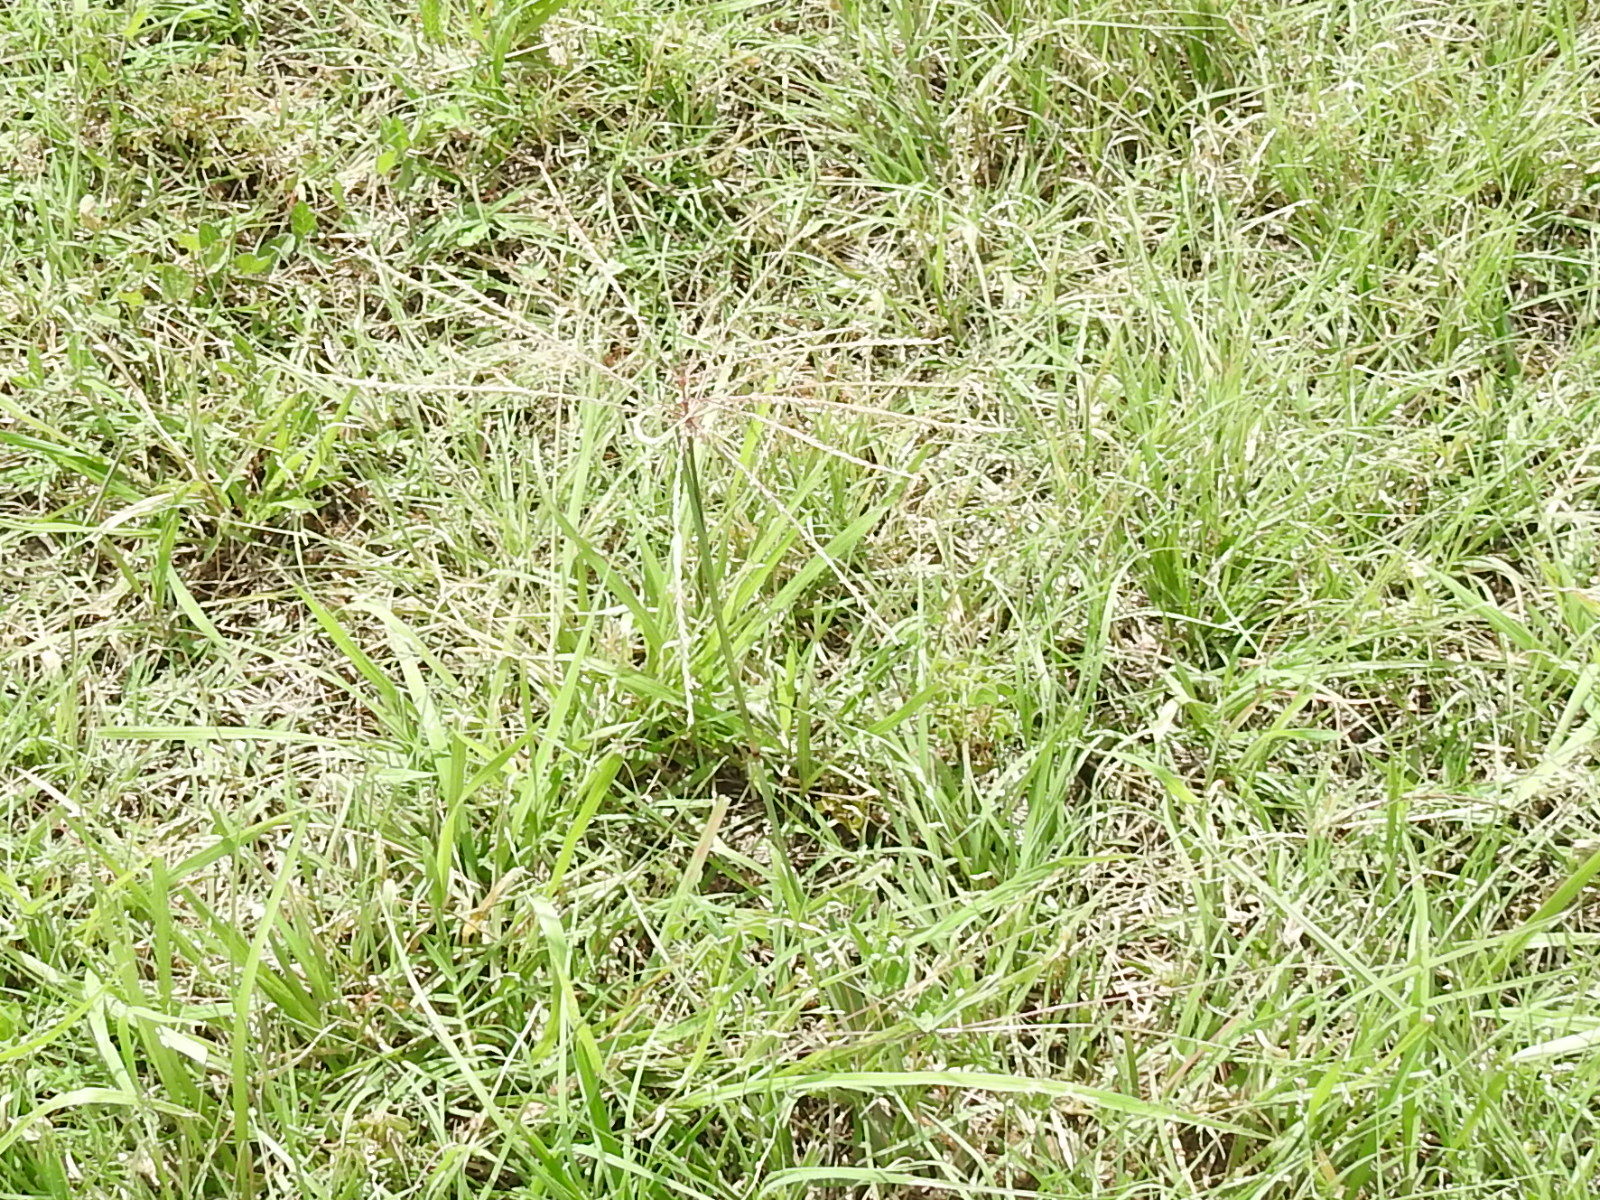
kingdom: Plantae
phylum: Tracheophyta
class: Liliopsida
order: Poales
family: Poaceae
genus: Chloris
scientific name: Chloris verticillata
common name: Tumble windmill grass
